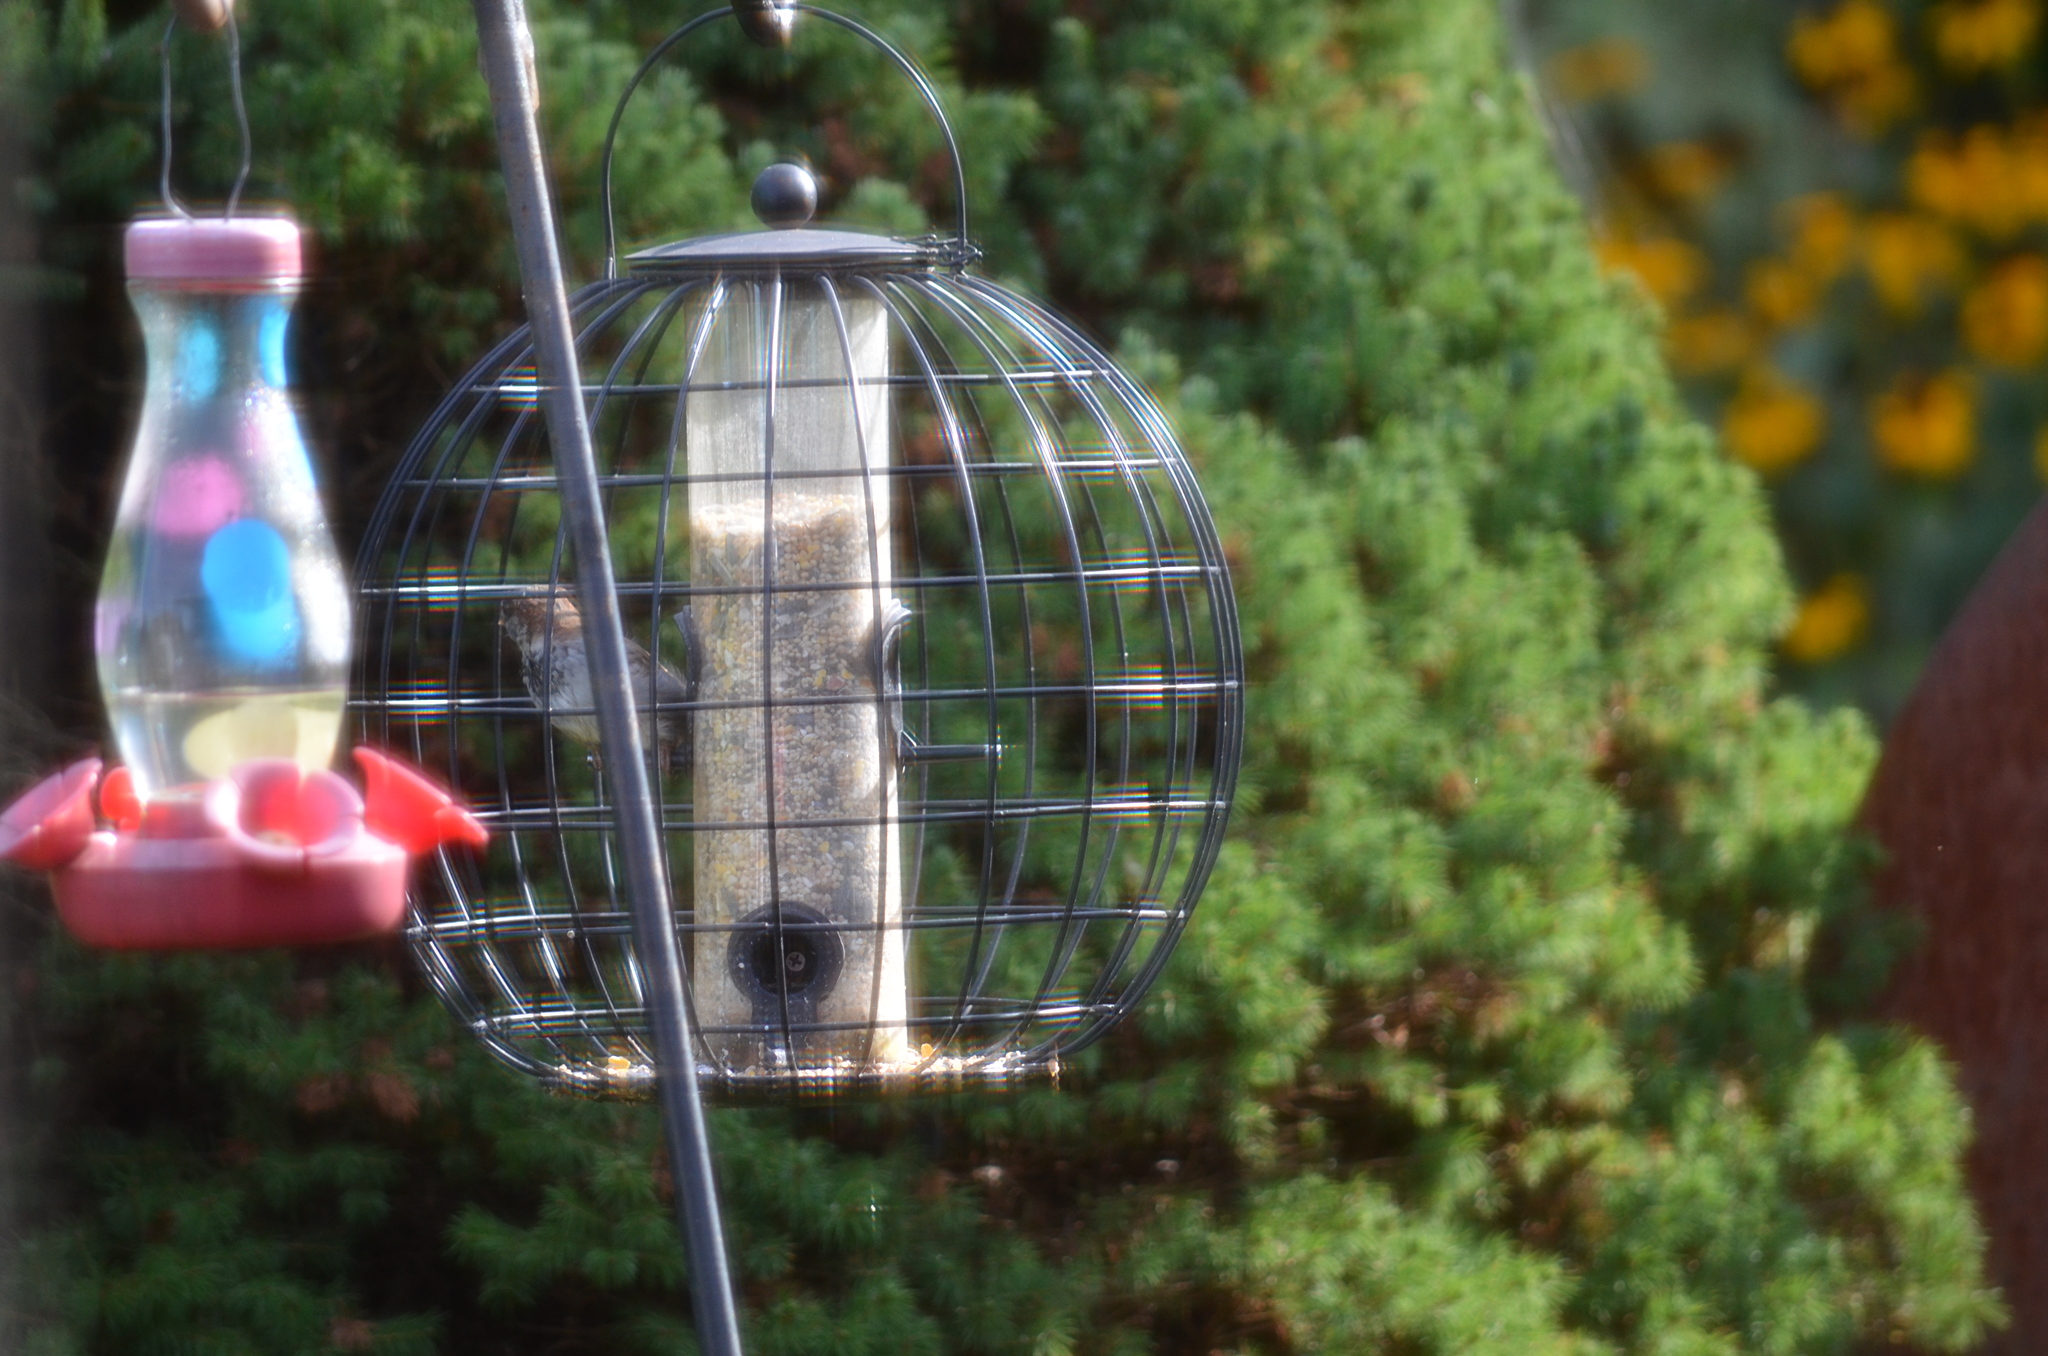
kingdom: Animalia
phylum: Chordata
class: Aves
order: Passeriformes
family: Passeridae
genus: Passer
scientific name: Passer domesticus
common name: House sparrow
